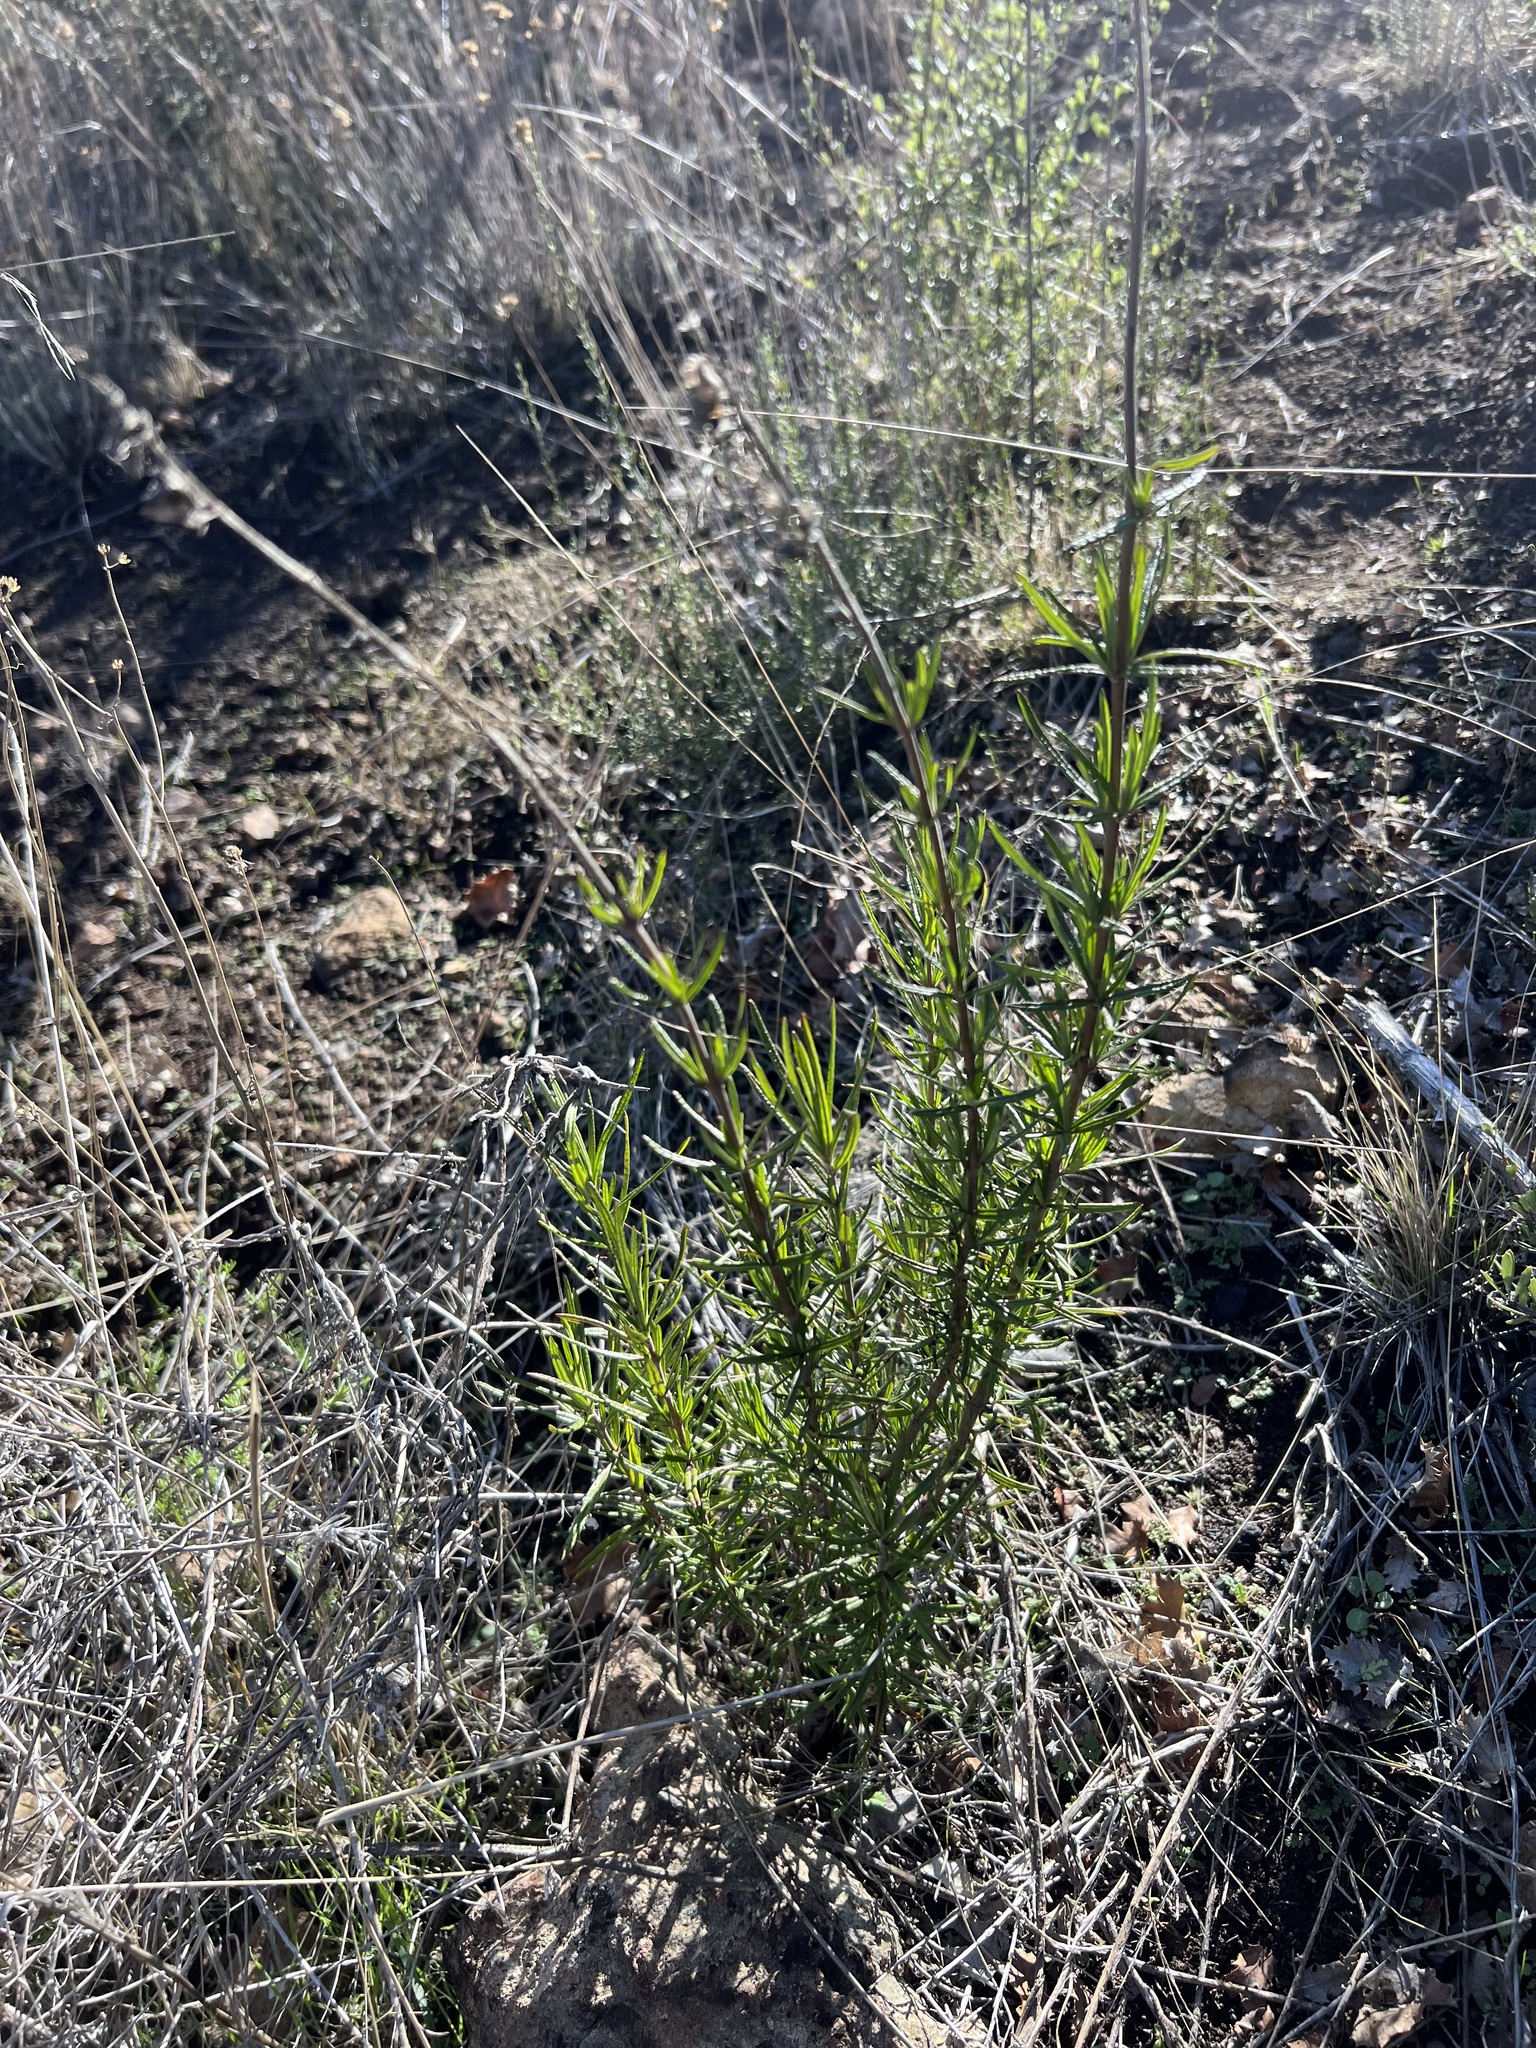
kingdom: Plantae
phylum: Tracheophyta
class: Magnoliopsida
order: Lamiales
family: Lamiaceae
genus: Trichostema
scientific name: Trichostema lanatum
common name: Woolly bluecurls
